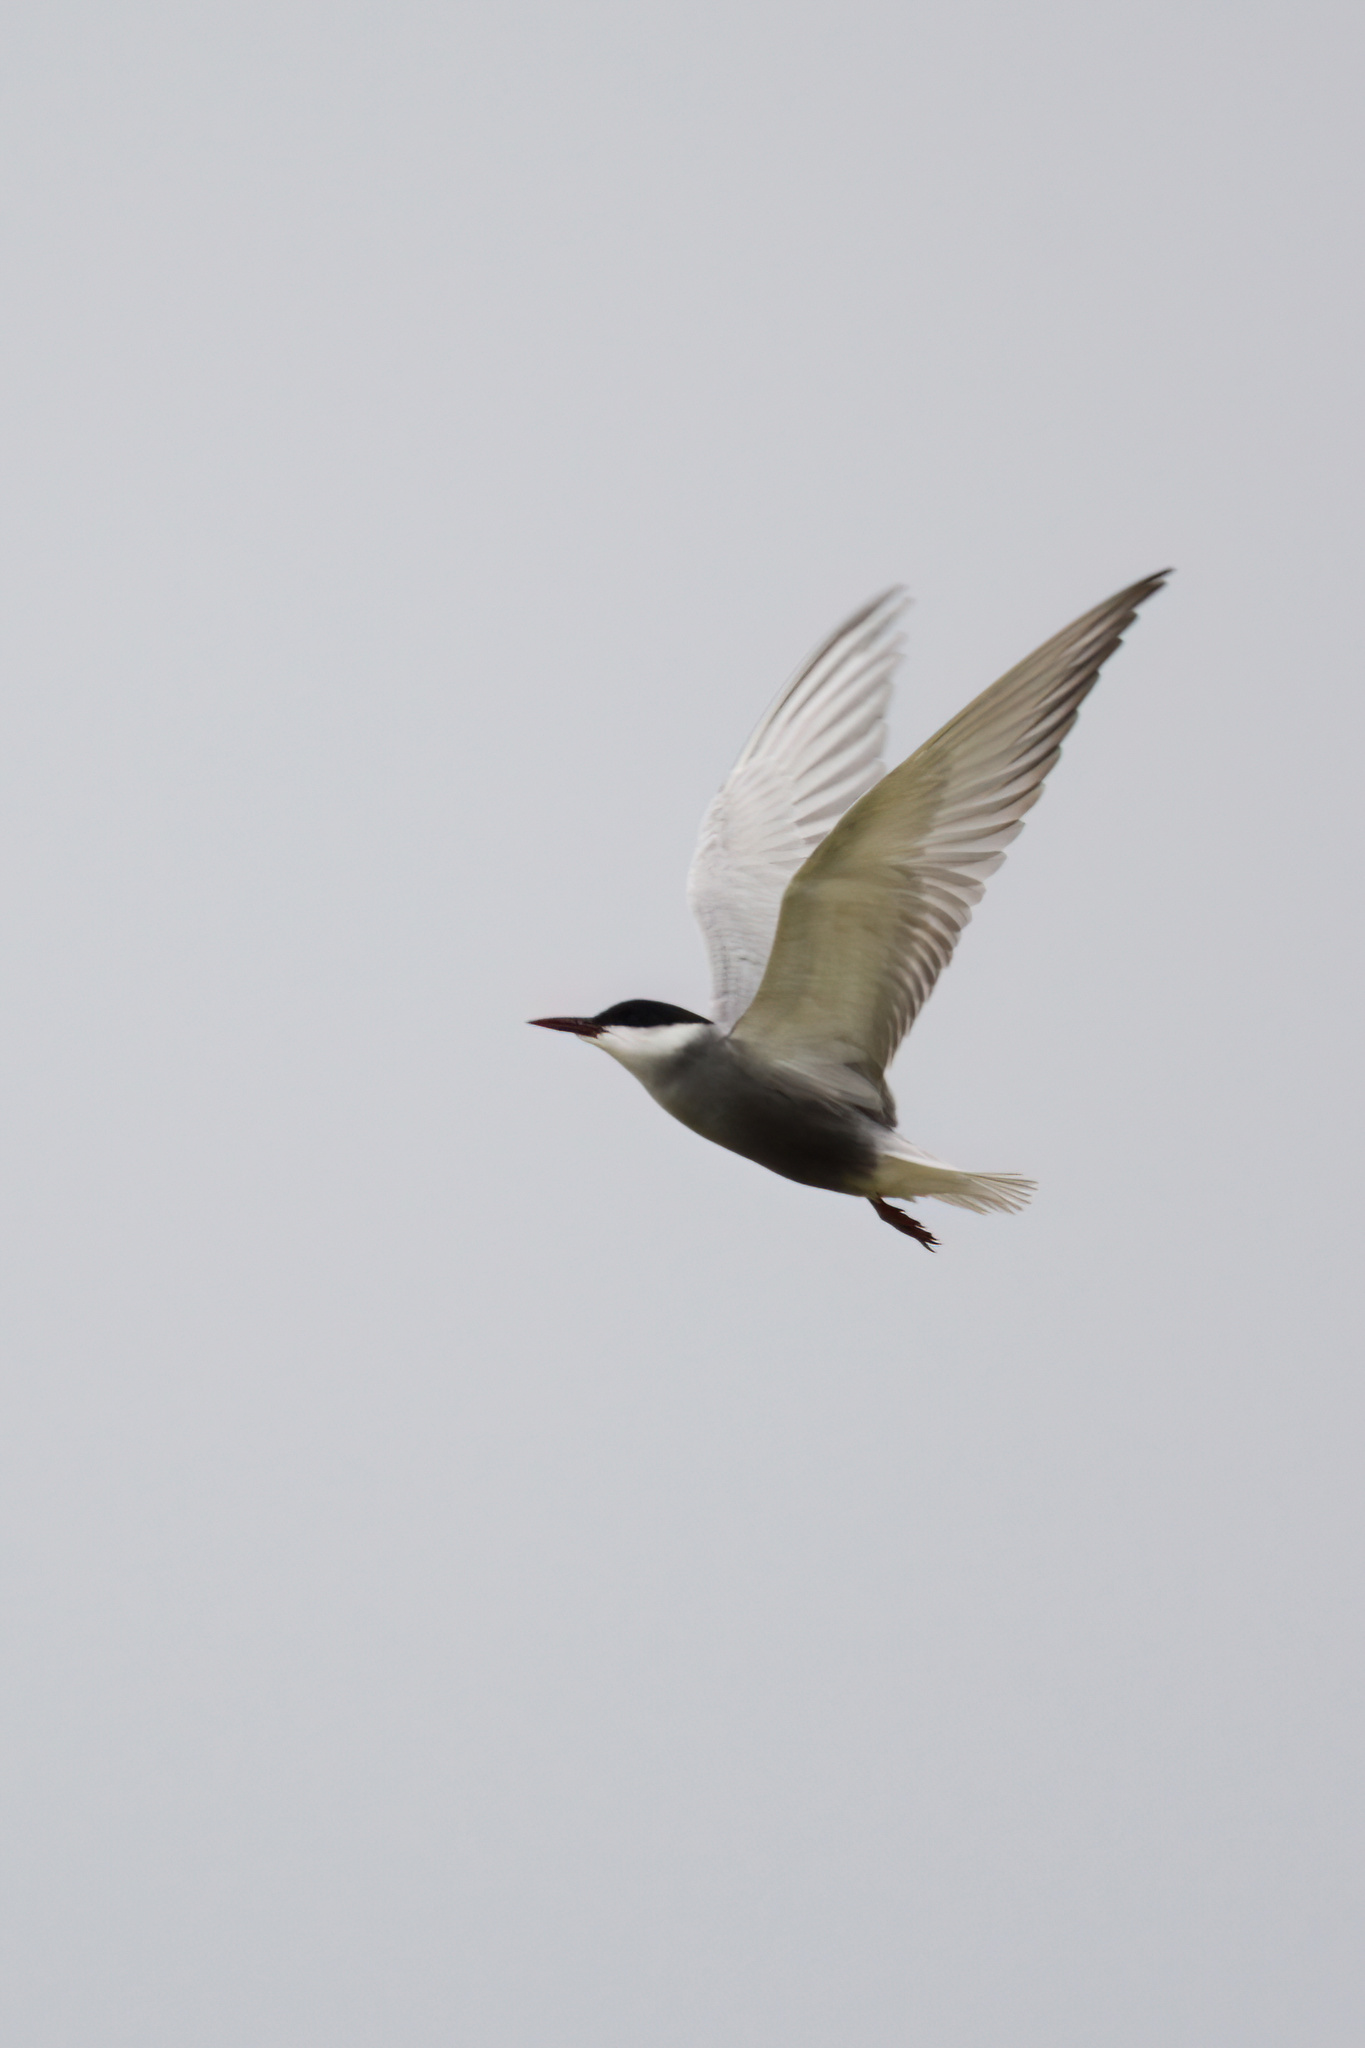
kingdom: Animalia
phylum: Chordata
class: Aves
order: Charadriiformes
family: Laridae
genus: Chlidonias
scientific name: Chlidonias hybrida
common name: Whiskered tern
